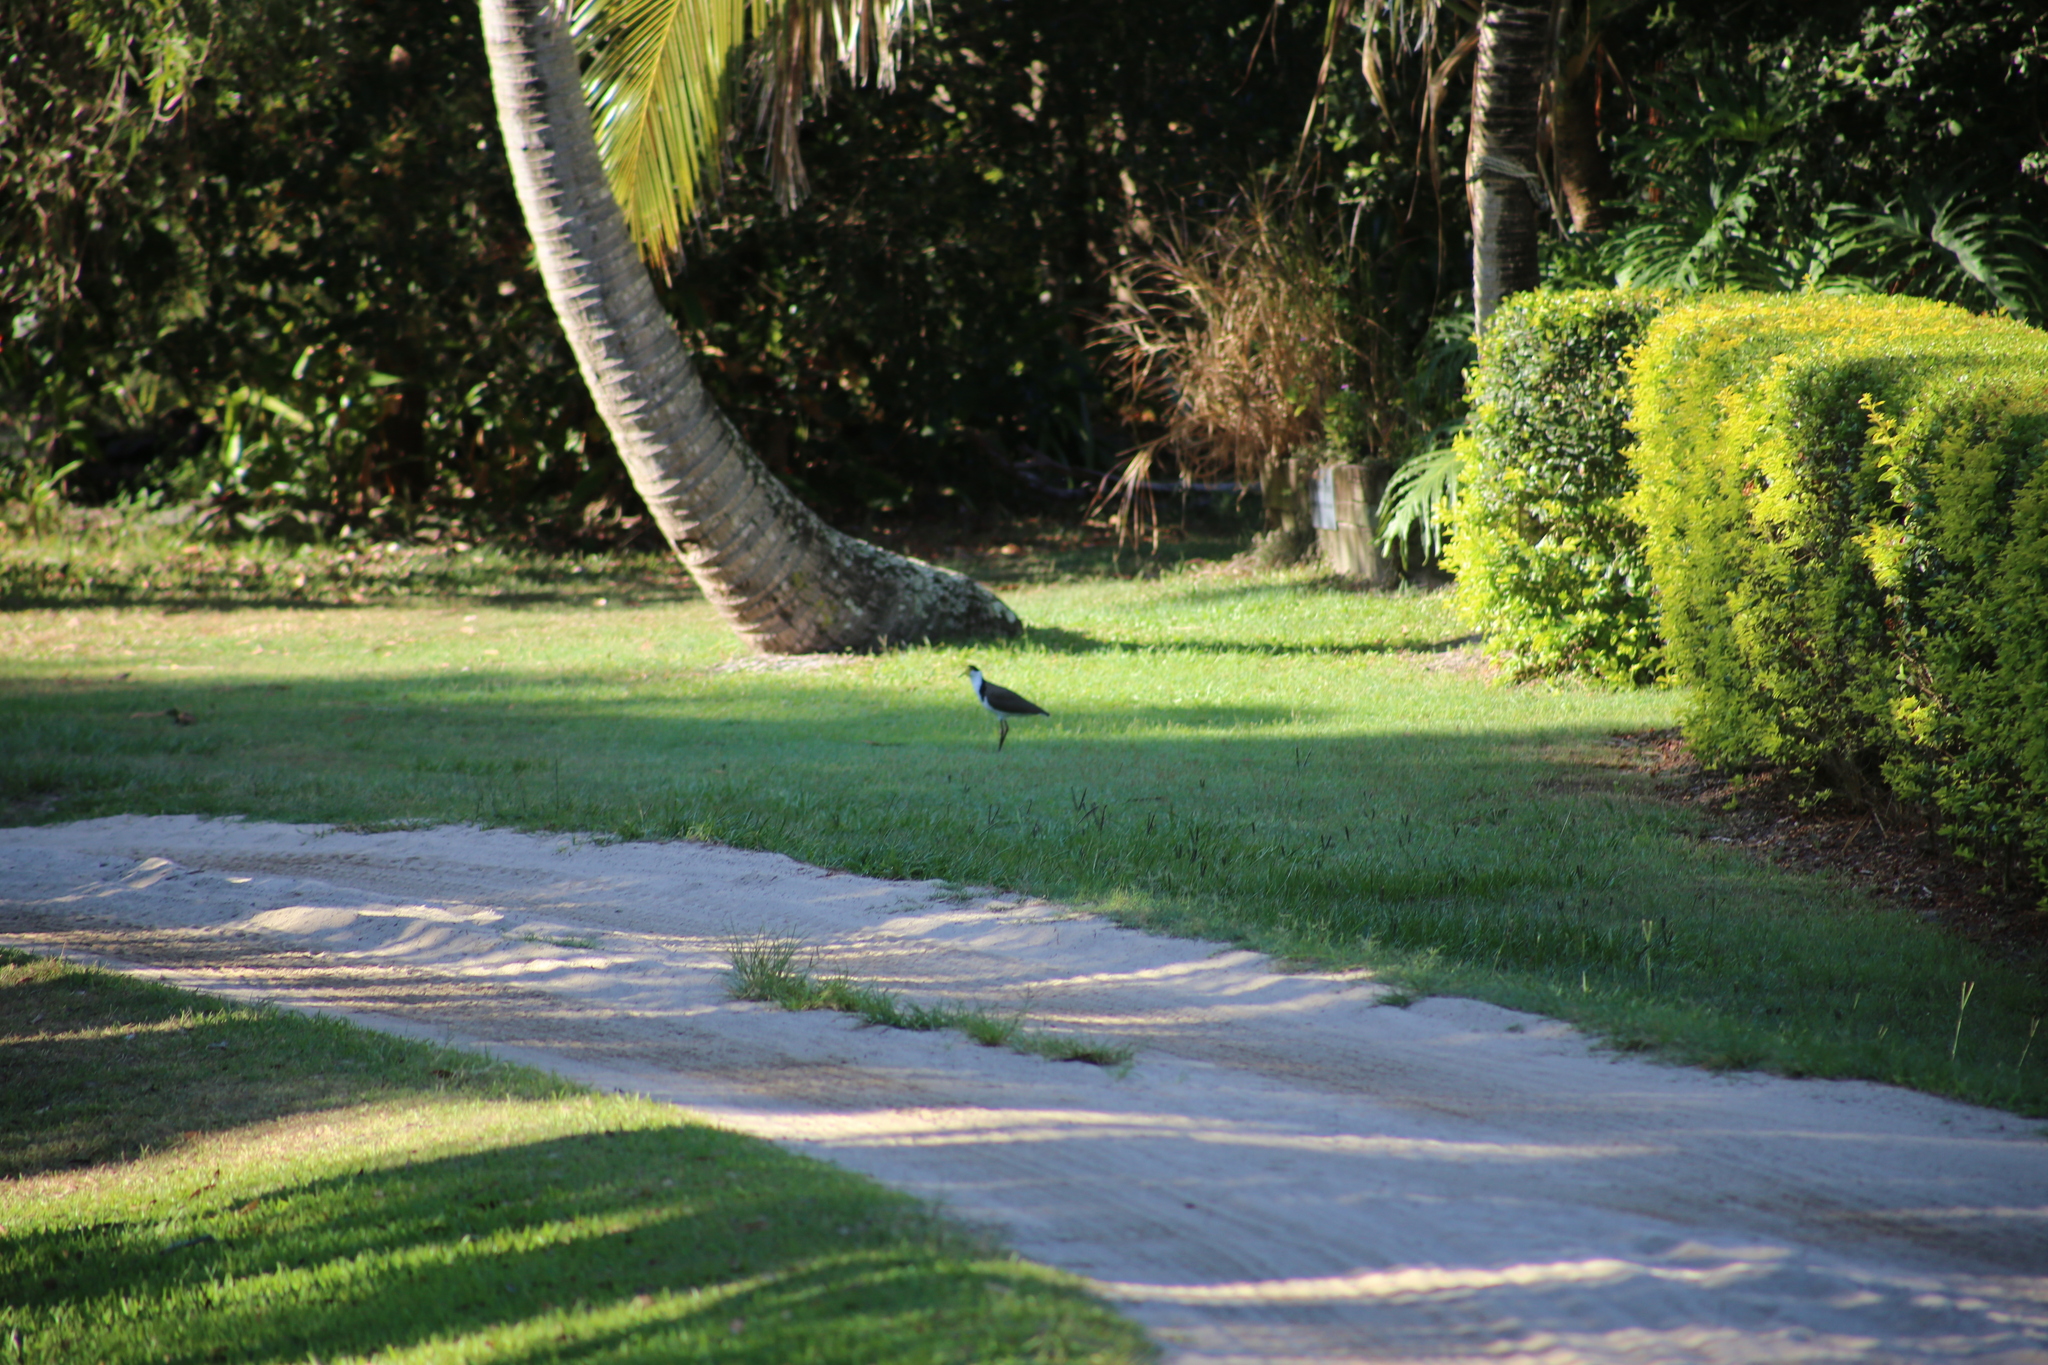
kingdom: Animalia
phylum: Chordata
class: Aves
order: Charadriiformes
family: Charadriidae
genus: Vanellus
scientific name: Vanellus miles
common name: Masked lapwing
